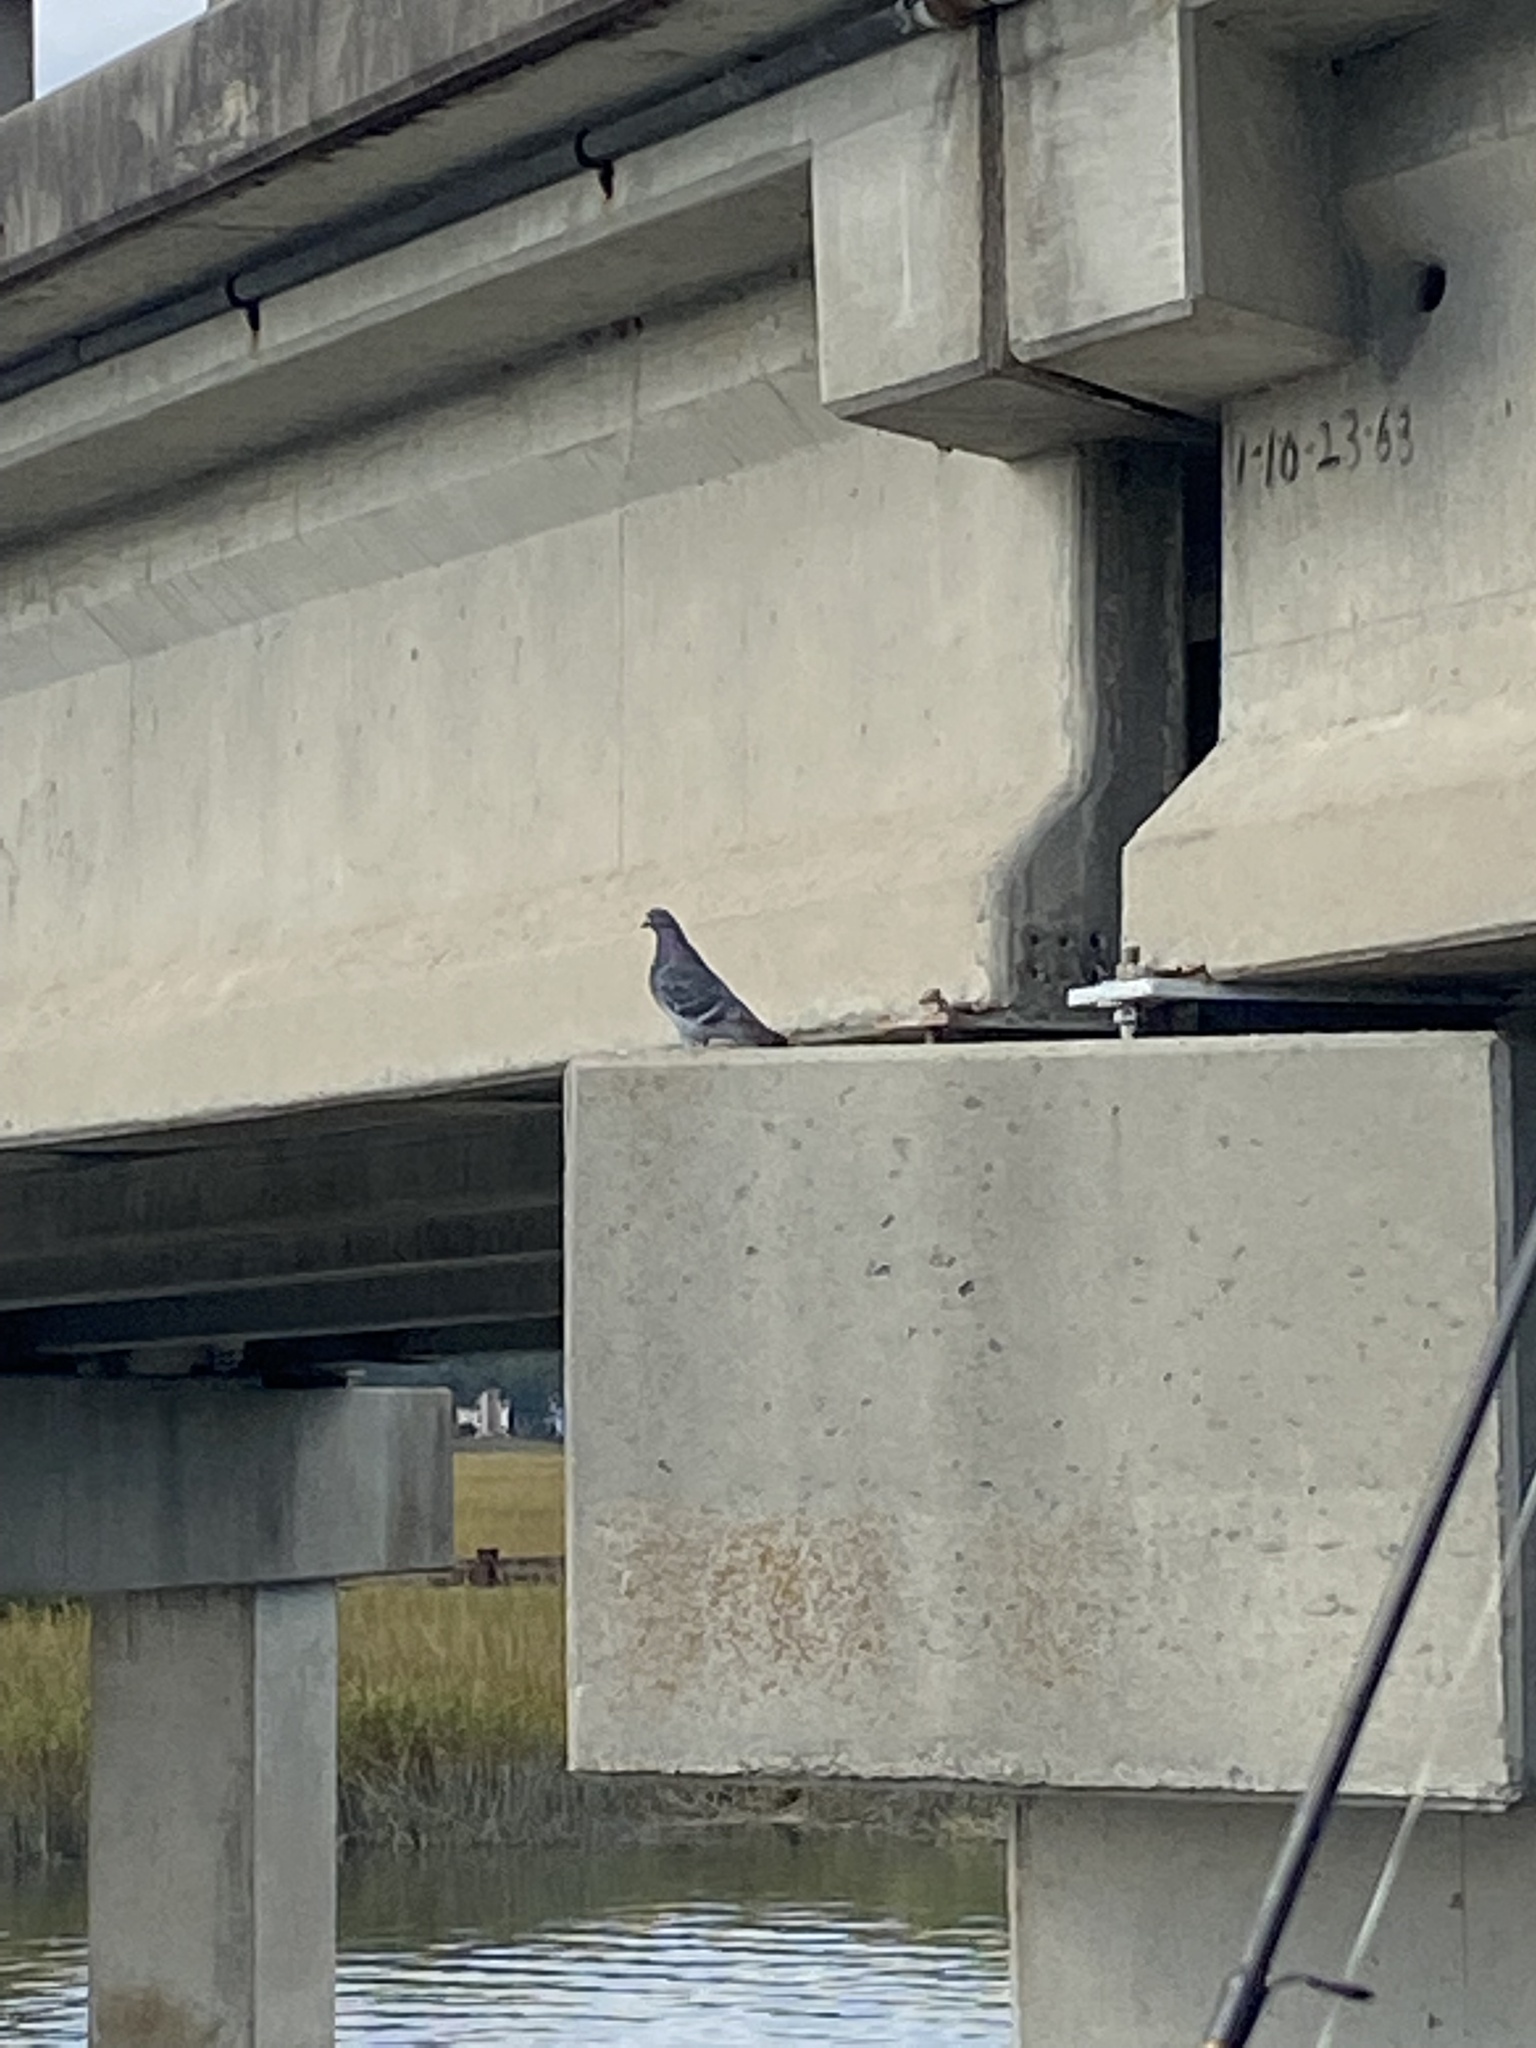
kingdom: Animalia
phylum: Chordata
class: Aves
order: Columbiformes
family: Columbidae
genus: Columba
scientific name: Columba livia
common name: Rock pigeon
